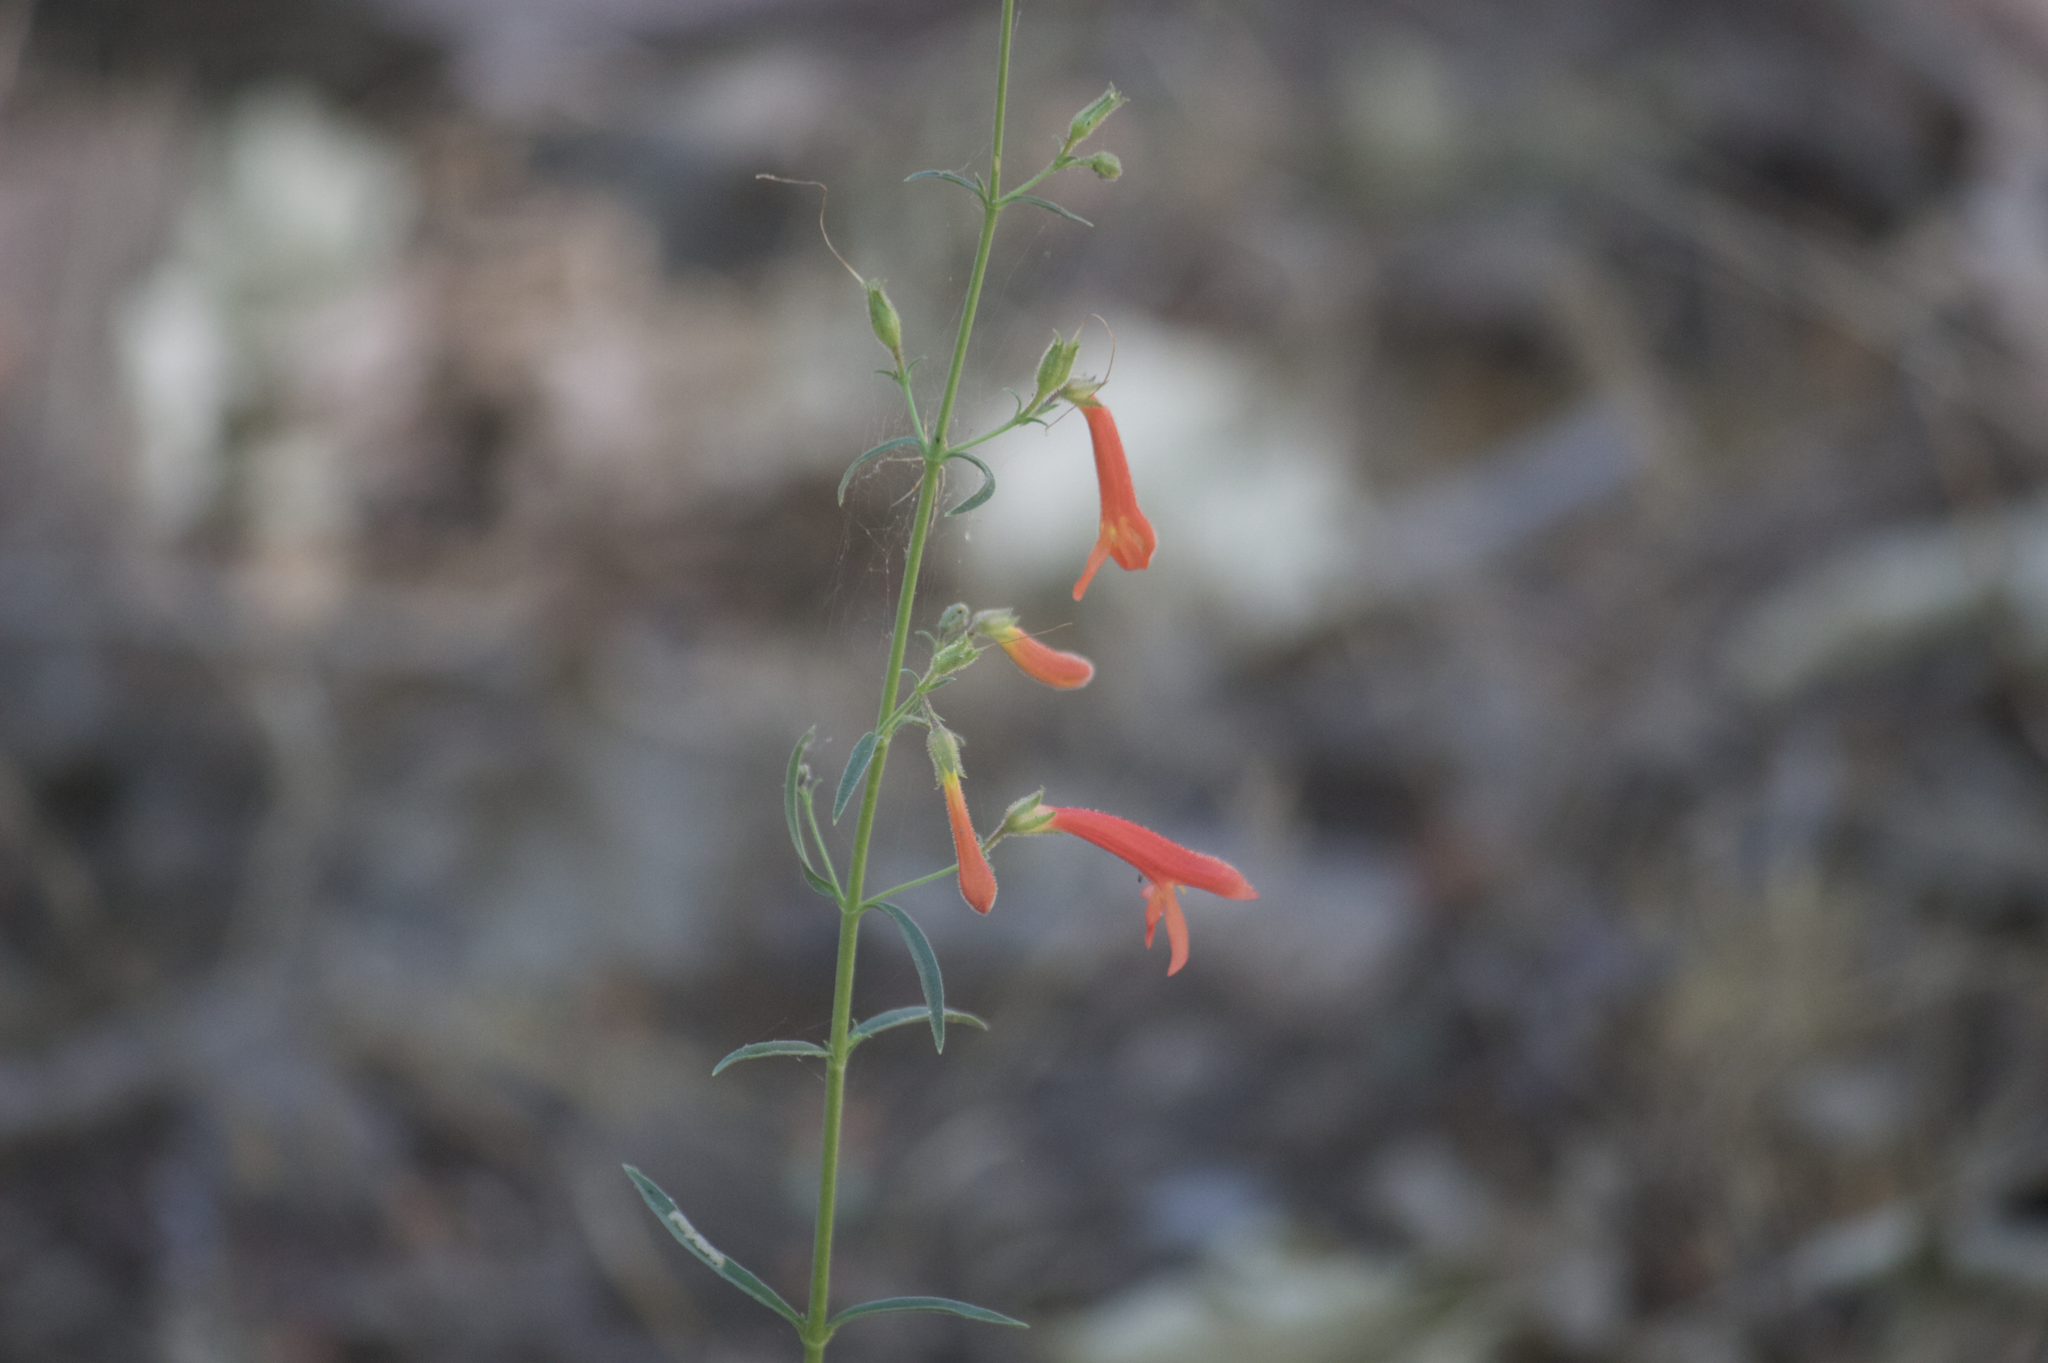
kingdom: Plantae
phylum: Tracheophyta
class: Magnoliopsida
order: Lamiales
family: Plantaginaceae
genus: Penstemon
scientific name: Penstemon rostriflorus
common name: Bridges's penstemon
